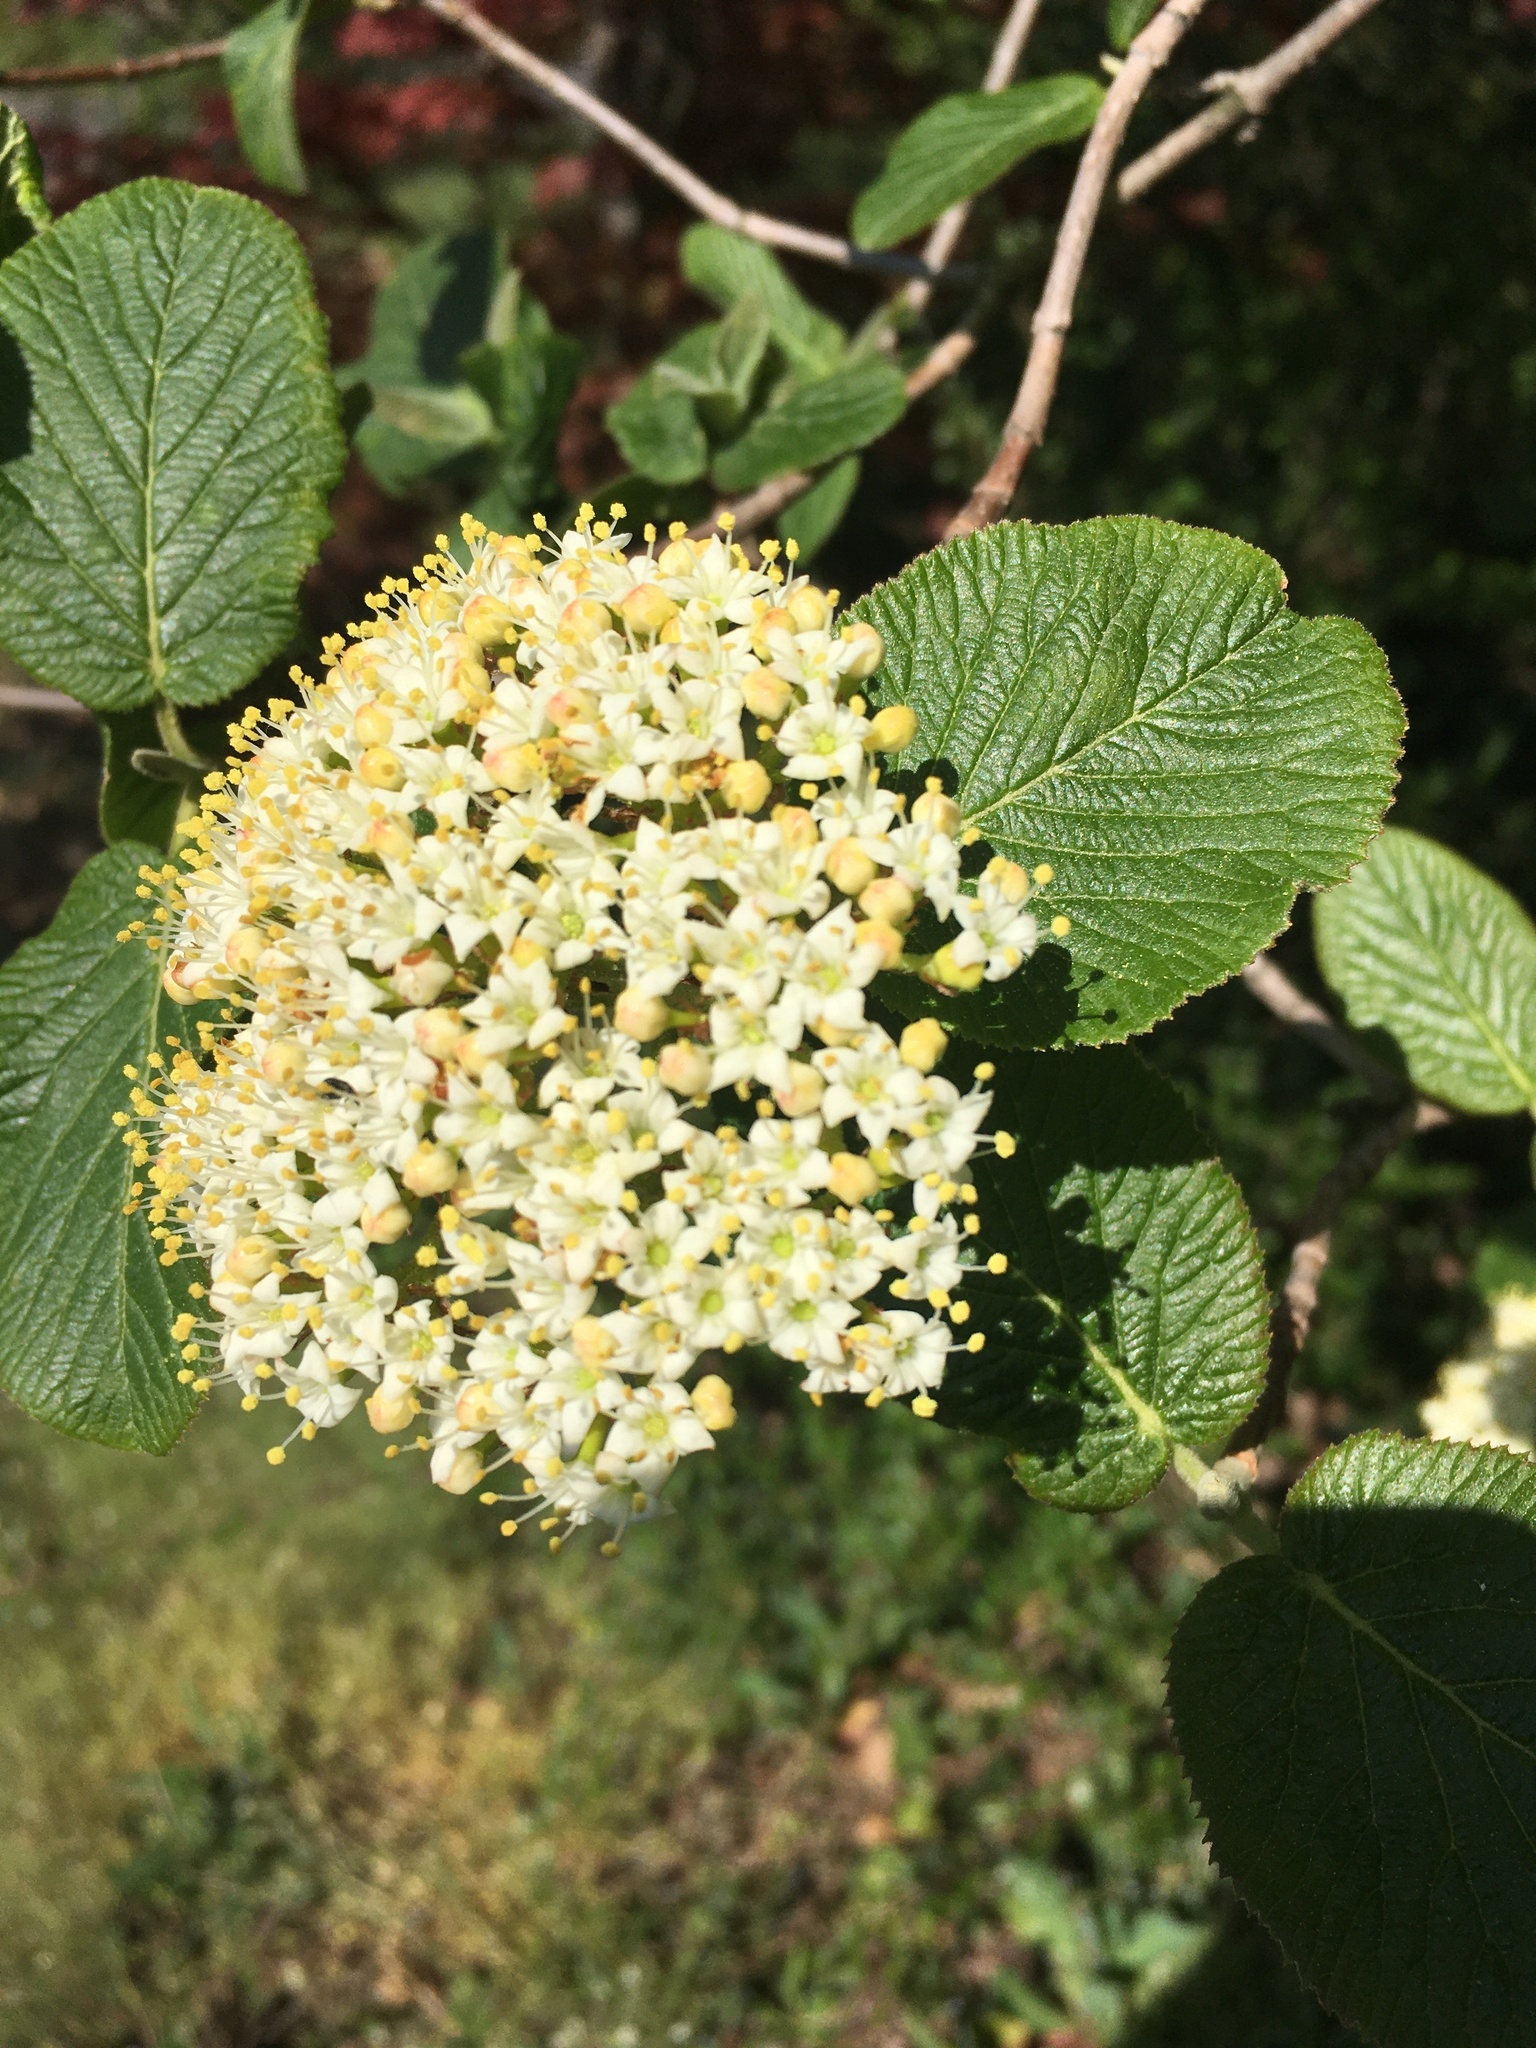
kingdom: Plantae
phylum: Tracheophyta
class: Magnoliopsida
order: Dipsacales
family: Viburnaceae
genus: Viburnum
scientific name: Viburnum lantana
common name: Wayfaring tree
